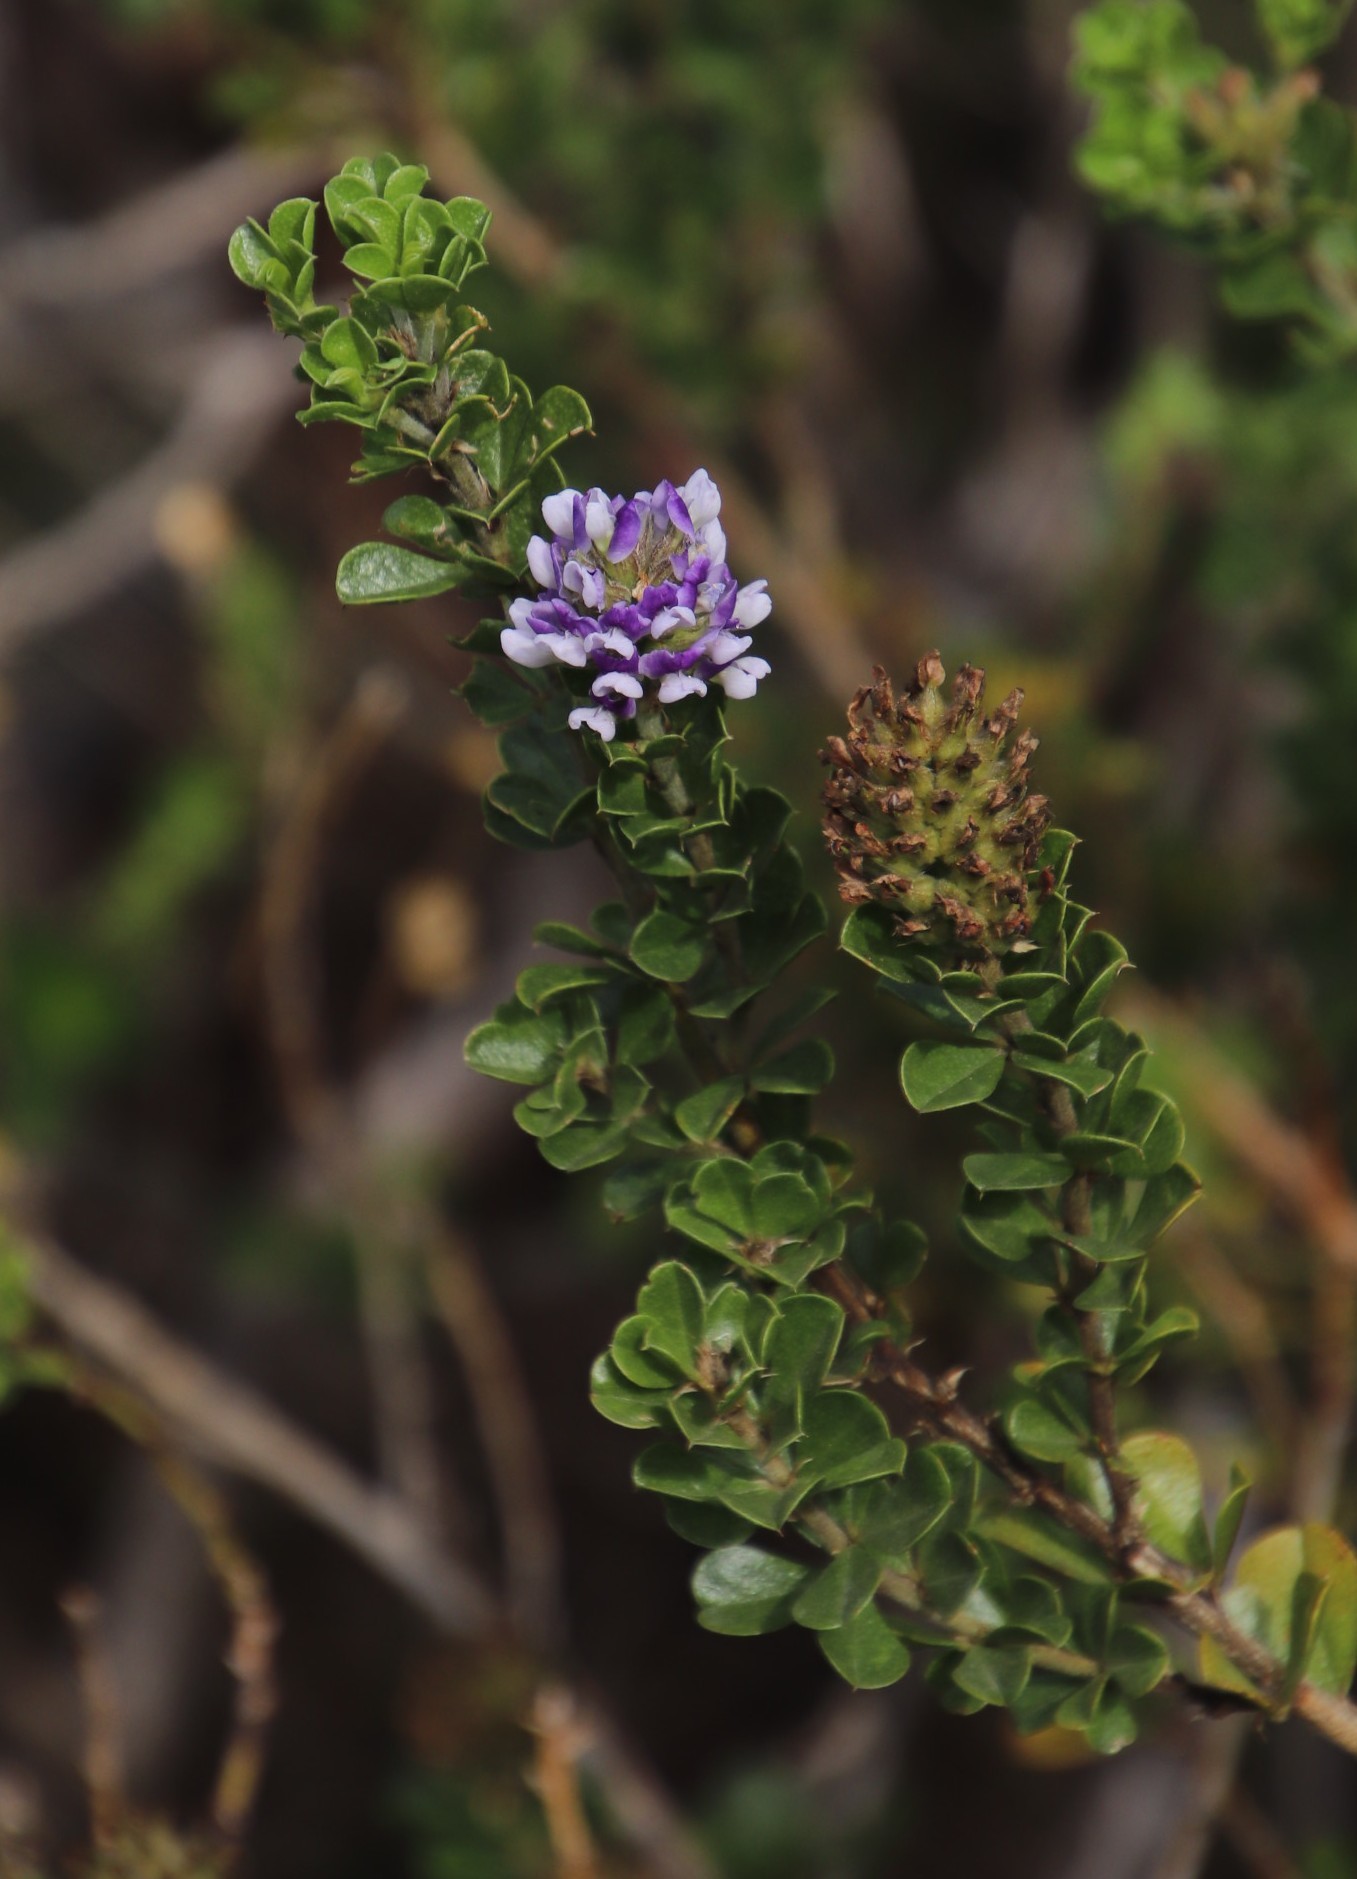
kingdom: Plantae
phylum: Tracheophyta
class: Magnoliopsida
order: Fabales
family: Fabaceae
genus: Psoralea
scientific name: Psoralea bracteolata
